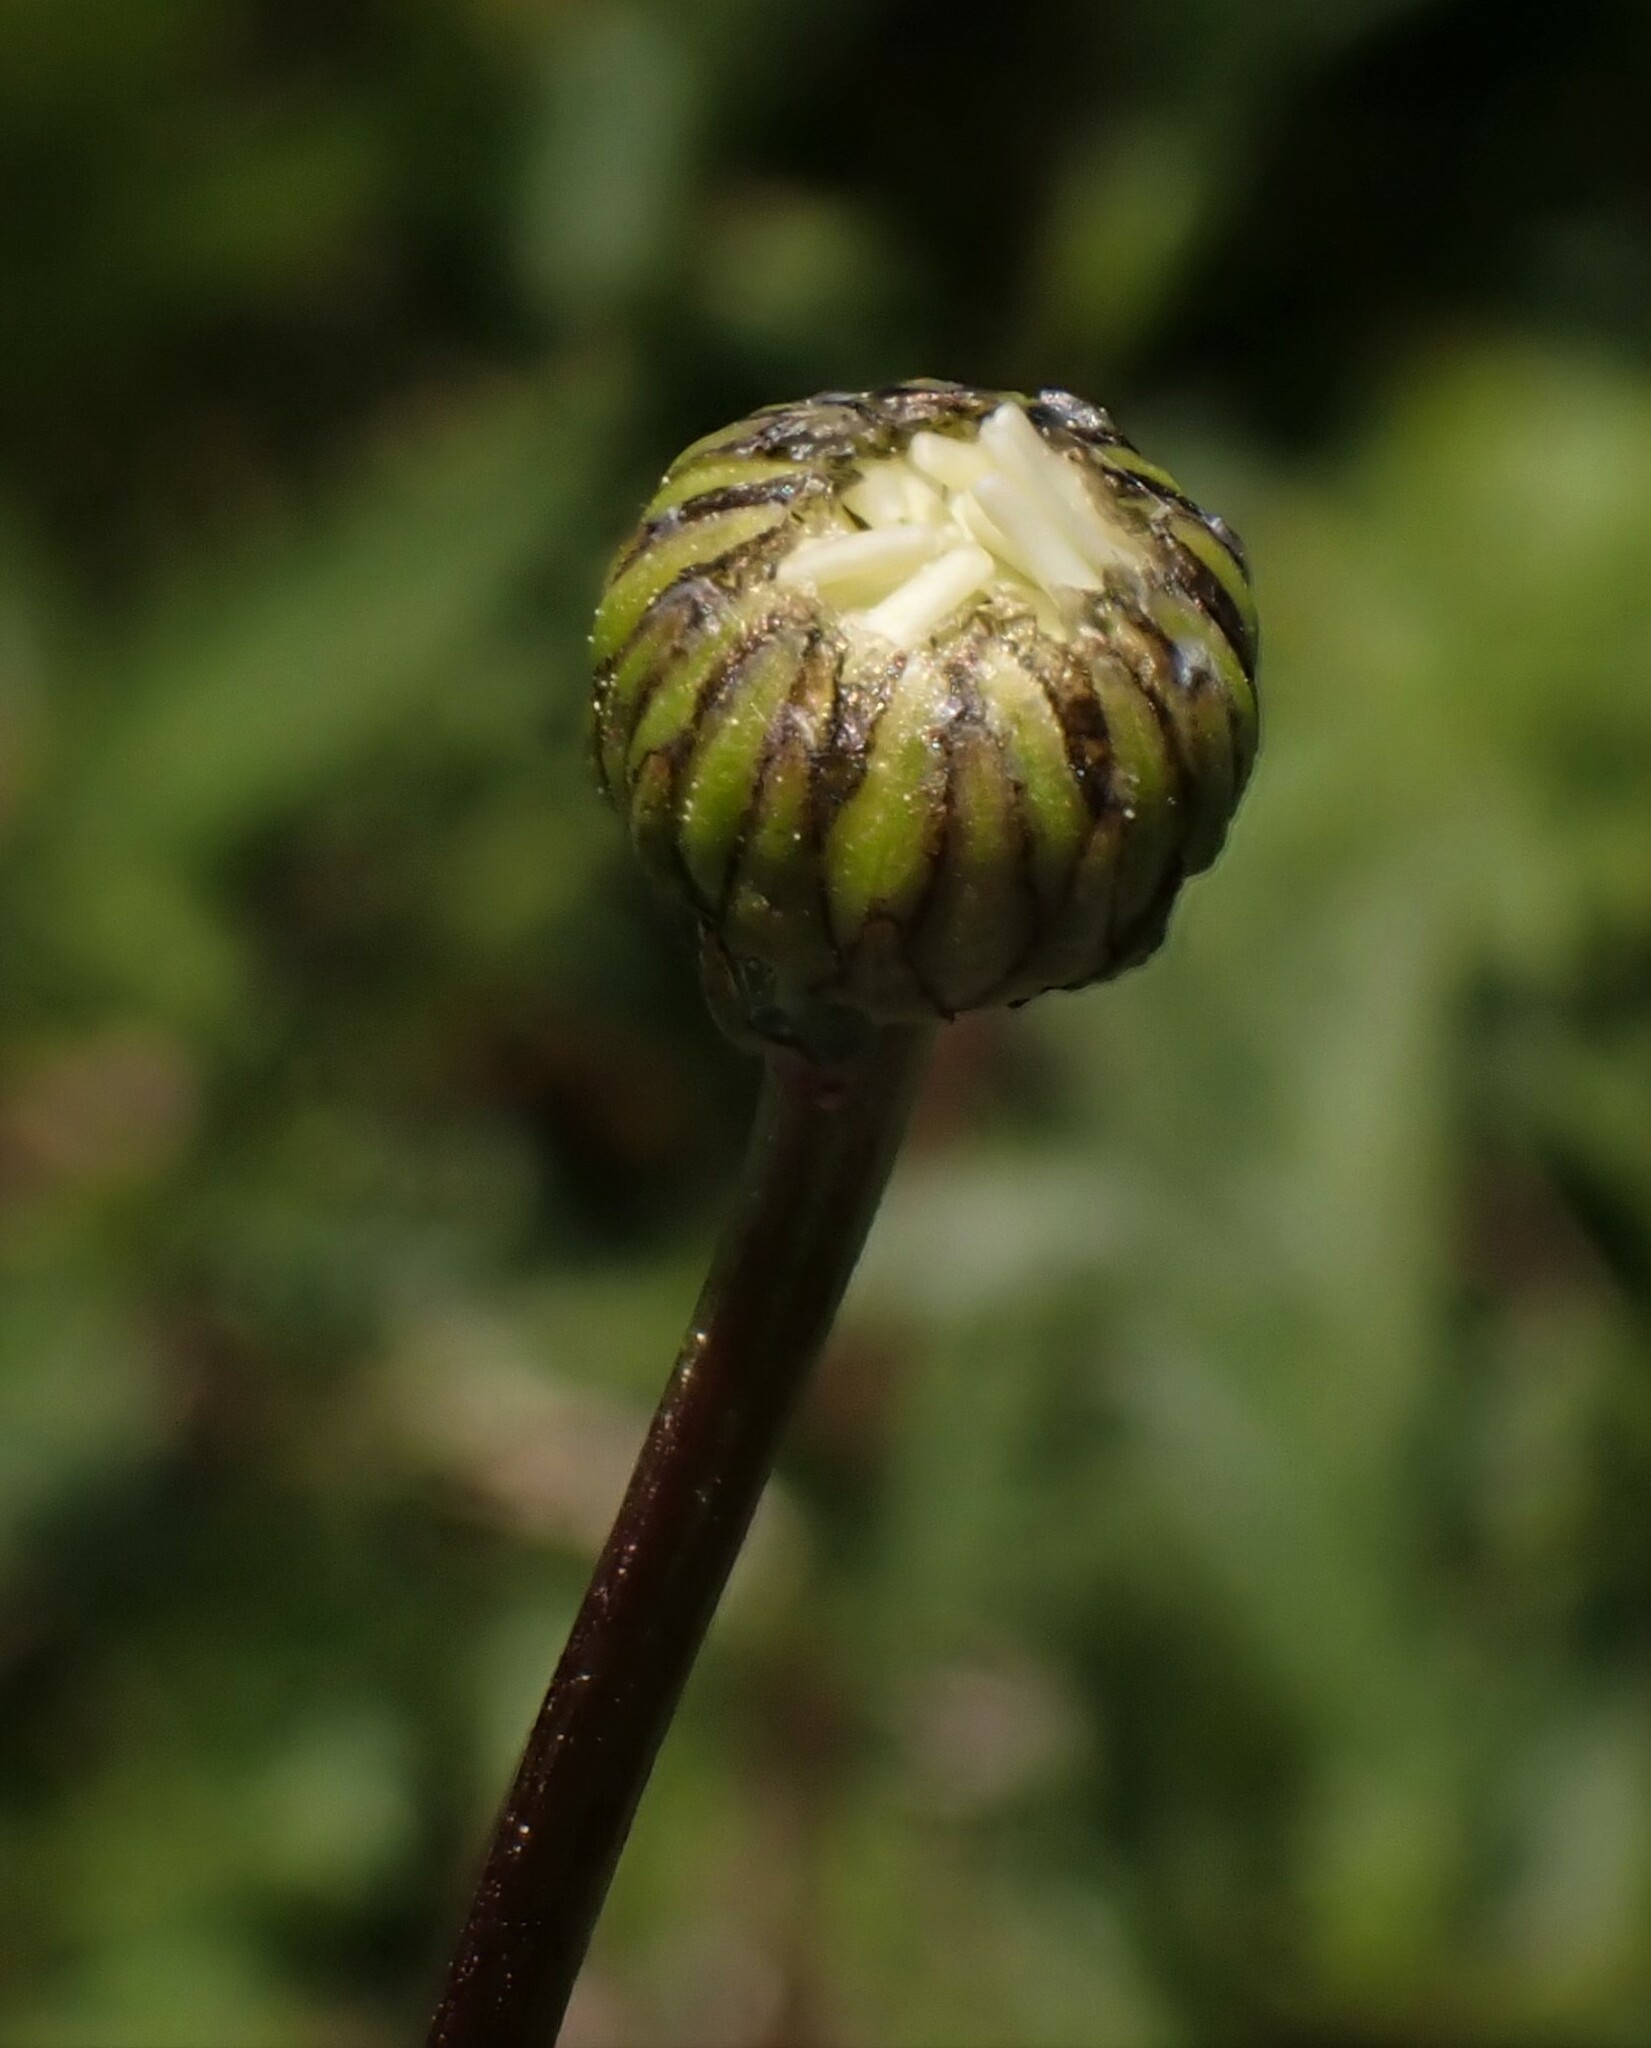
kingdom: Plantae
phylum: Tracheophyta
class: Magnoliopsida
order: Asterales
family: Asteraceae
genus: Leucanthemum
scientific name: Leucanthemum vulgare
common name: Oxeye daisy
